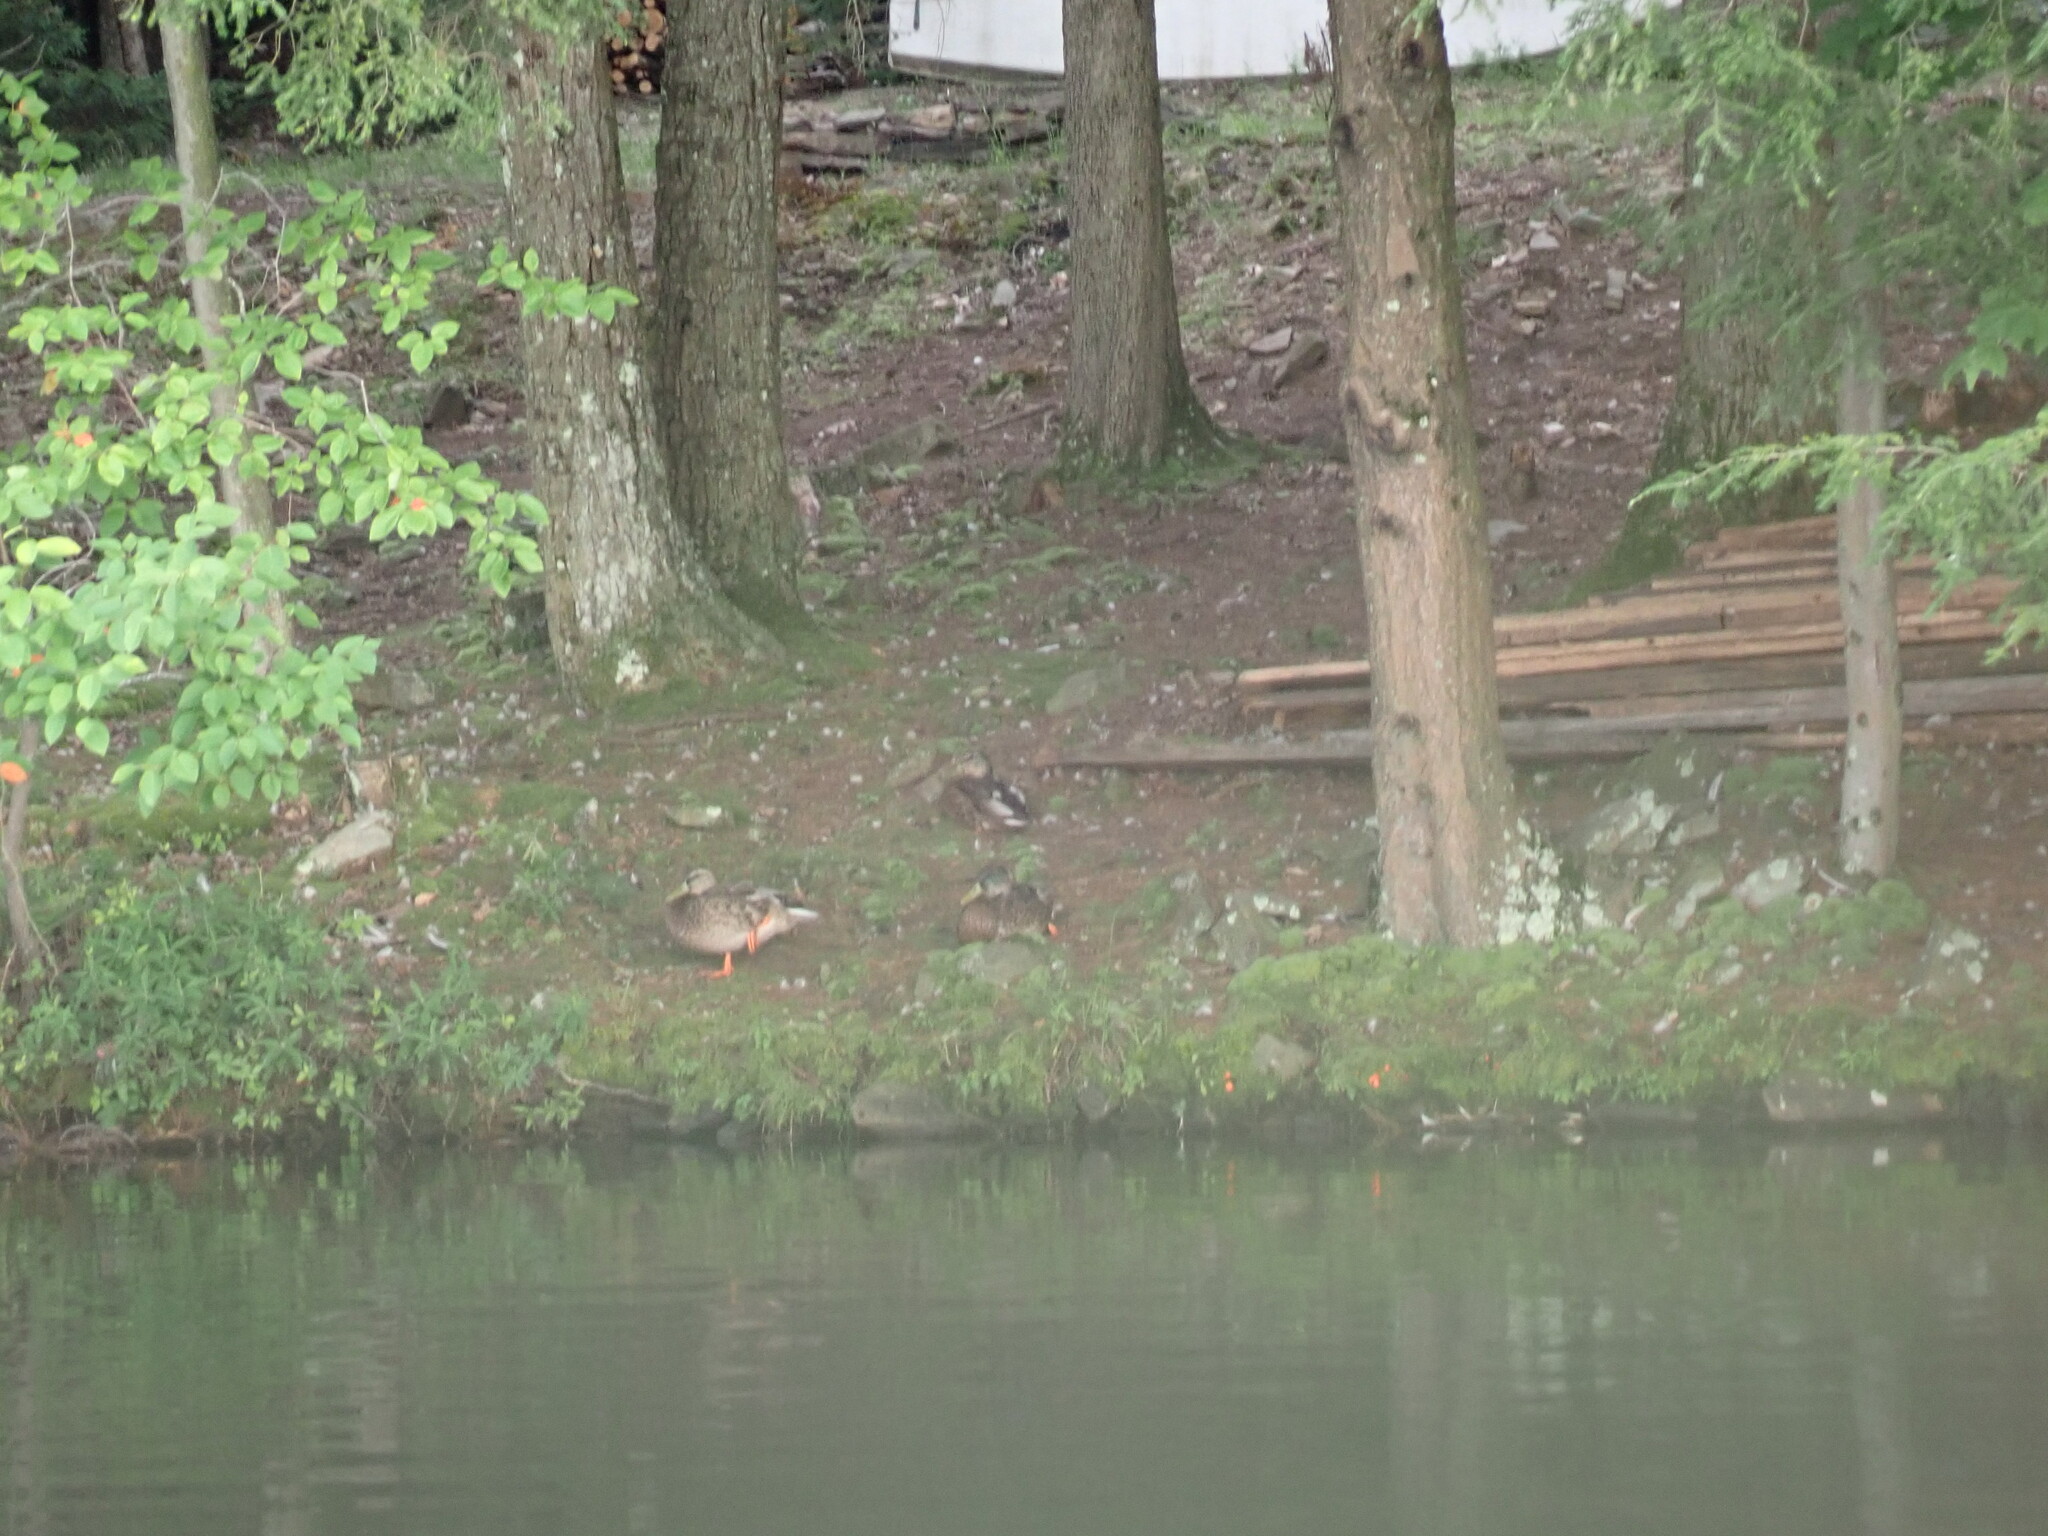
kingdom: Animalia
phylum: Chordata
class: Aves
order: Anseriformes
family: Anatidae
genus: Anas
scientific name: Anas platyrhynchos
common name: Mallard
